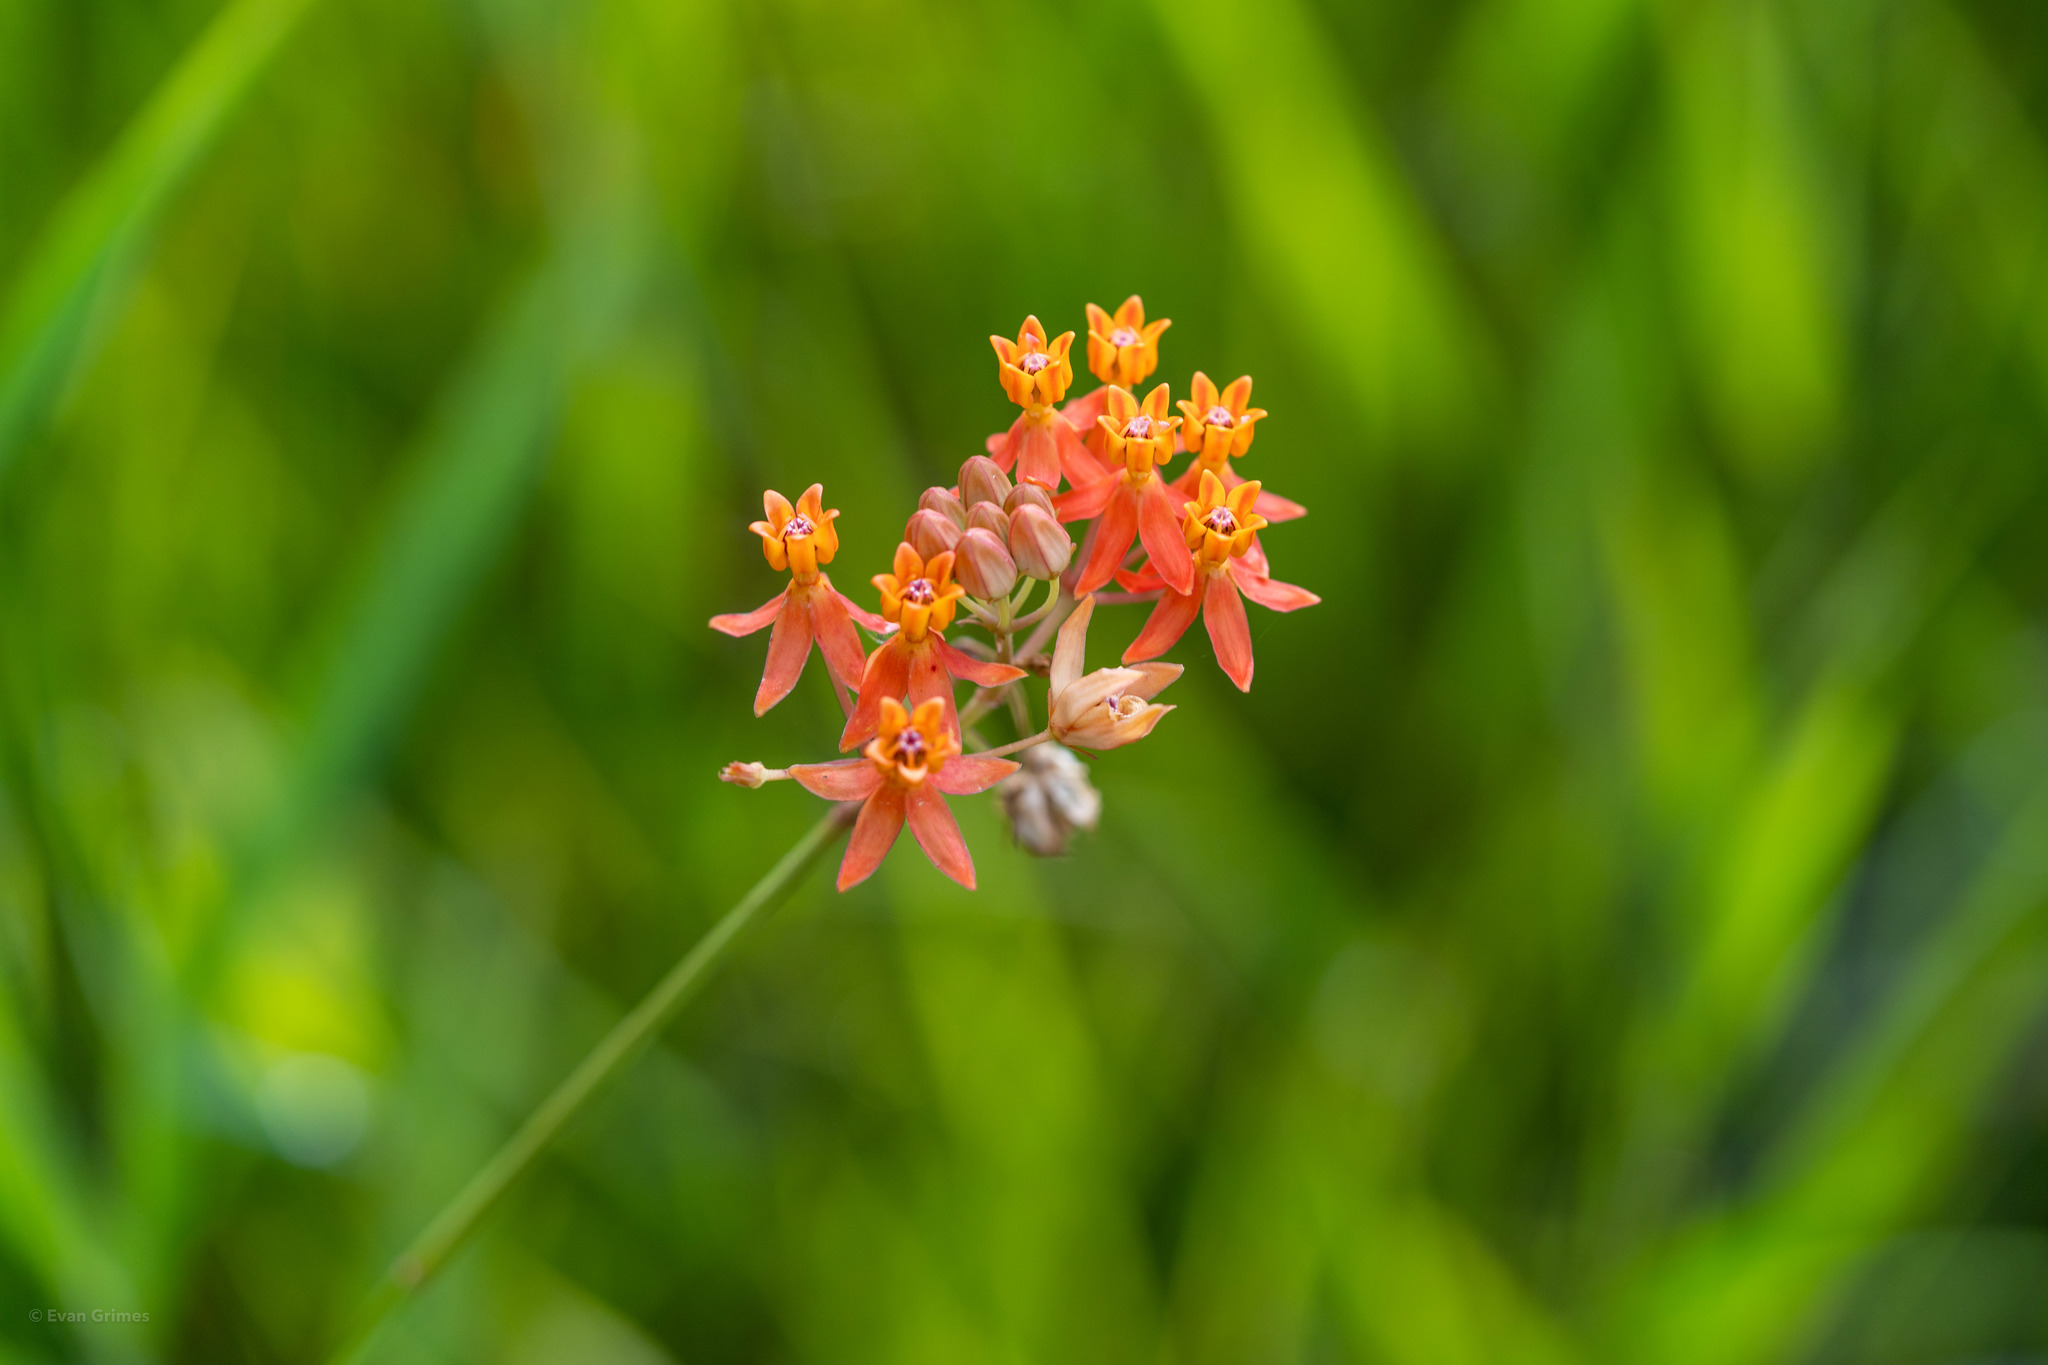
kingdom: Plantae
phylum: Tracheophyta
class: Magnoliopsida
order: Gentianales
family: Apocynaceae
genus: Asclepias
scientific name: Asclepias lanceolata
